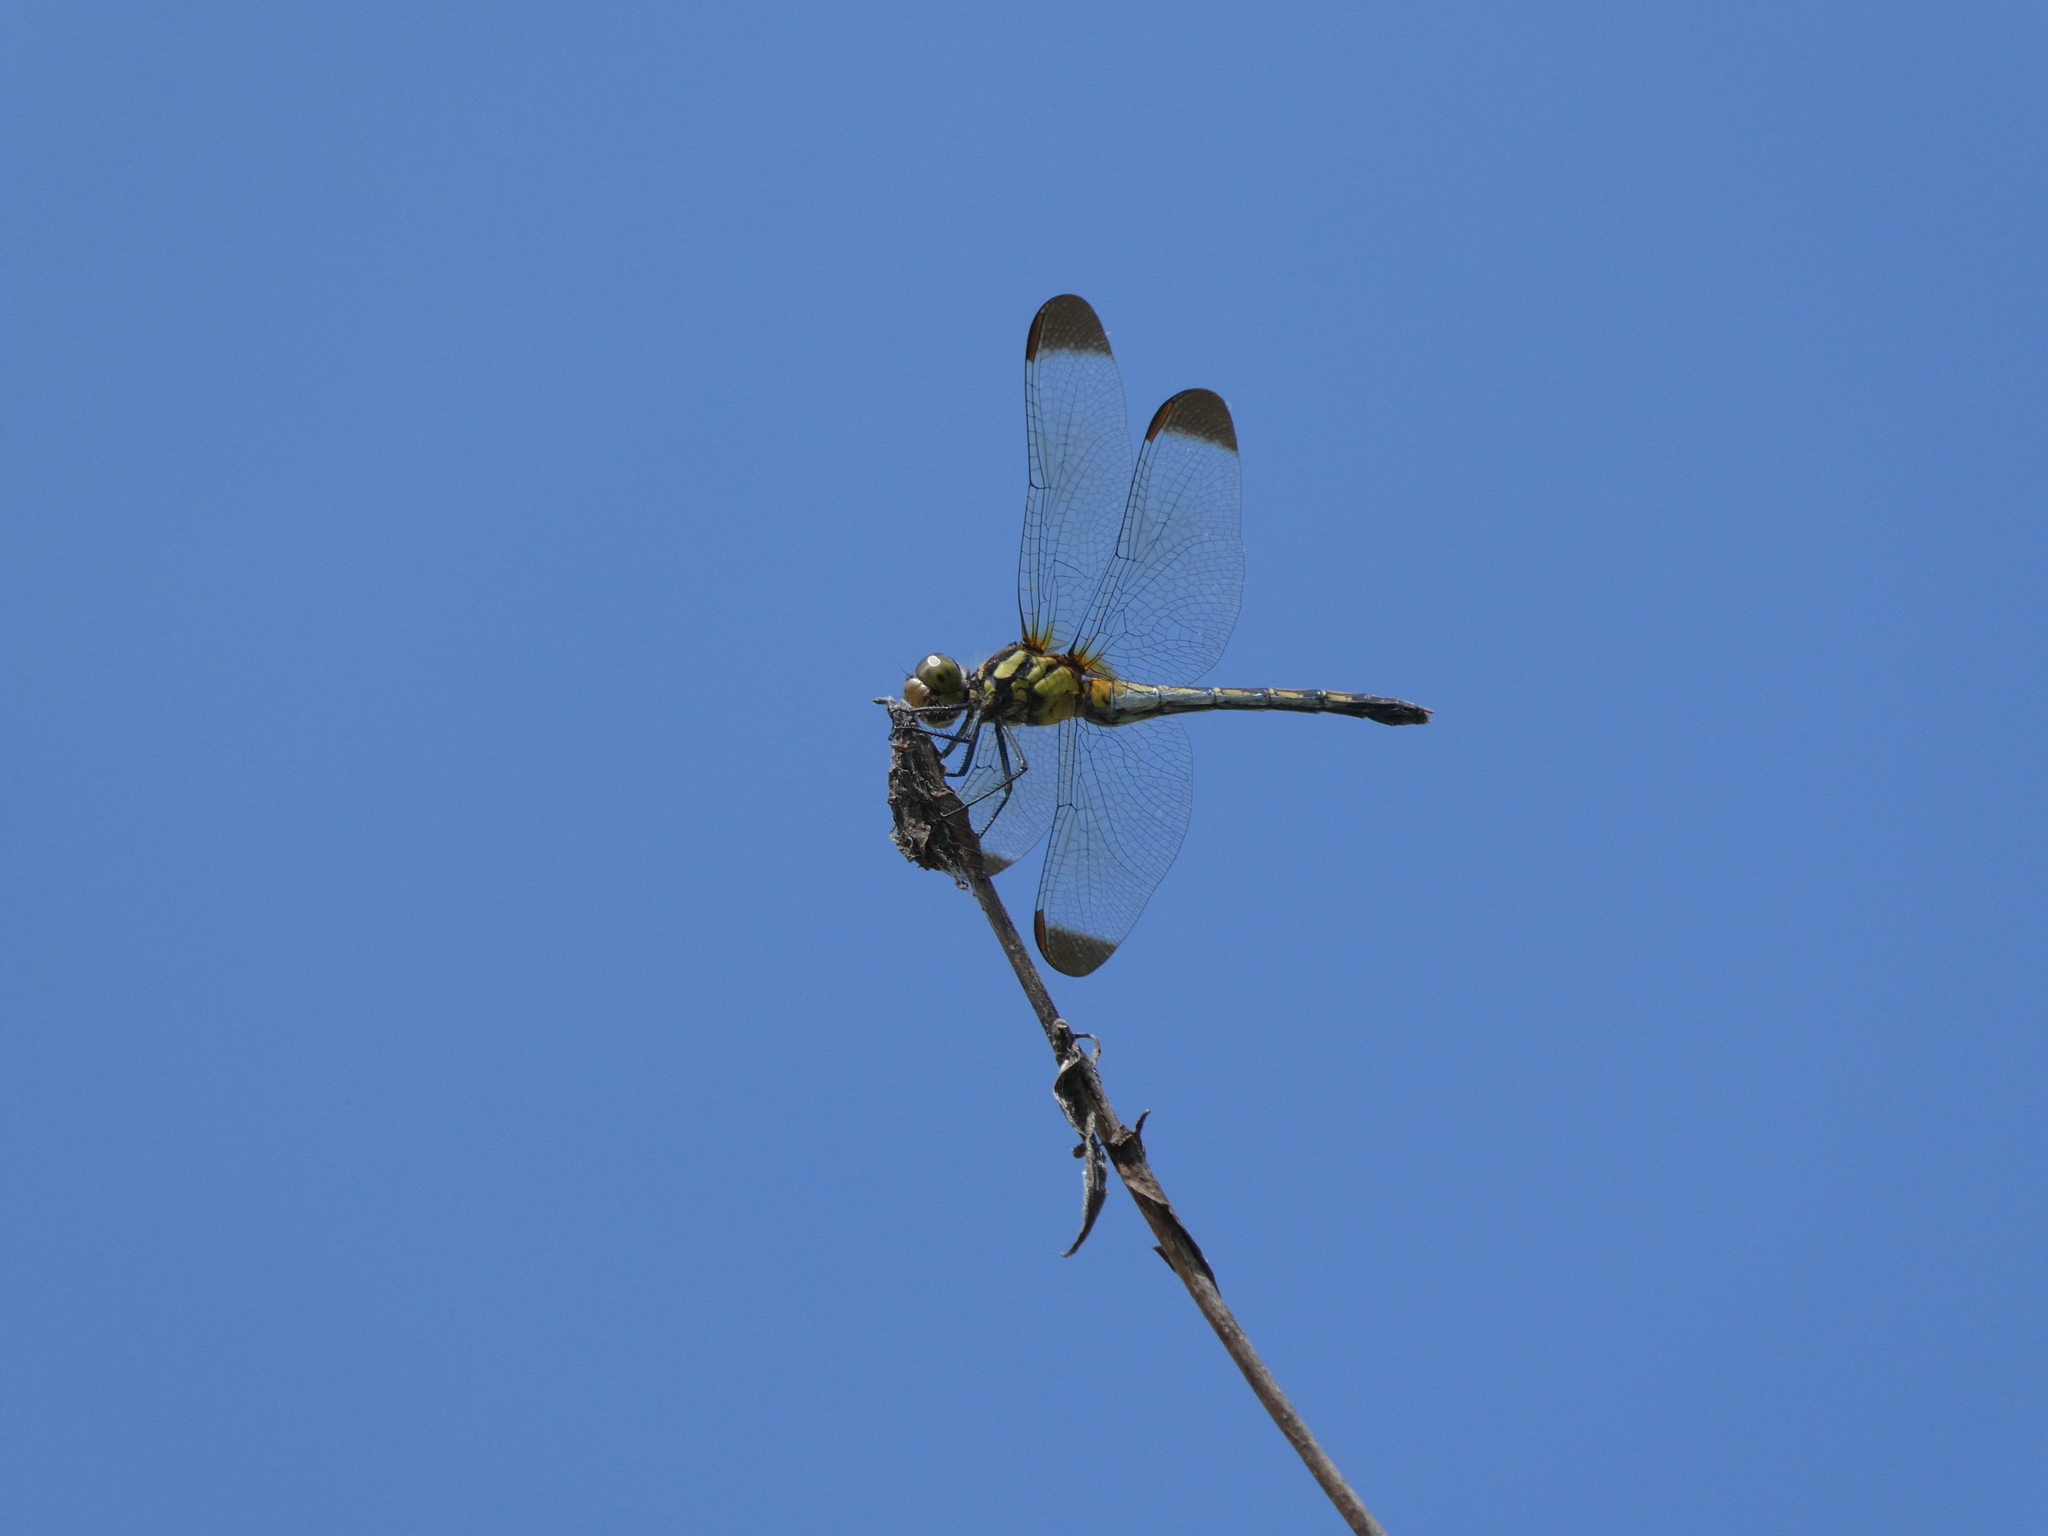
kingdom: Animalia
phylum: Arthropoda
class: Insecta
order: Odonata
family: Libellulidae
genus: Sympetrum
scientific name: Sympetrum infuscatum
